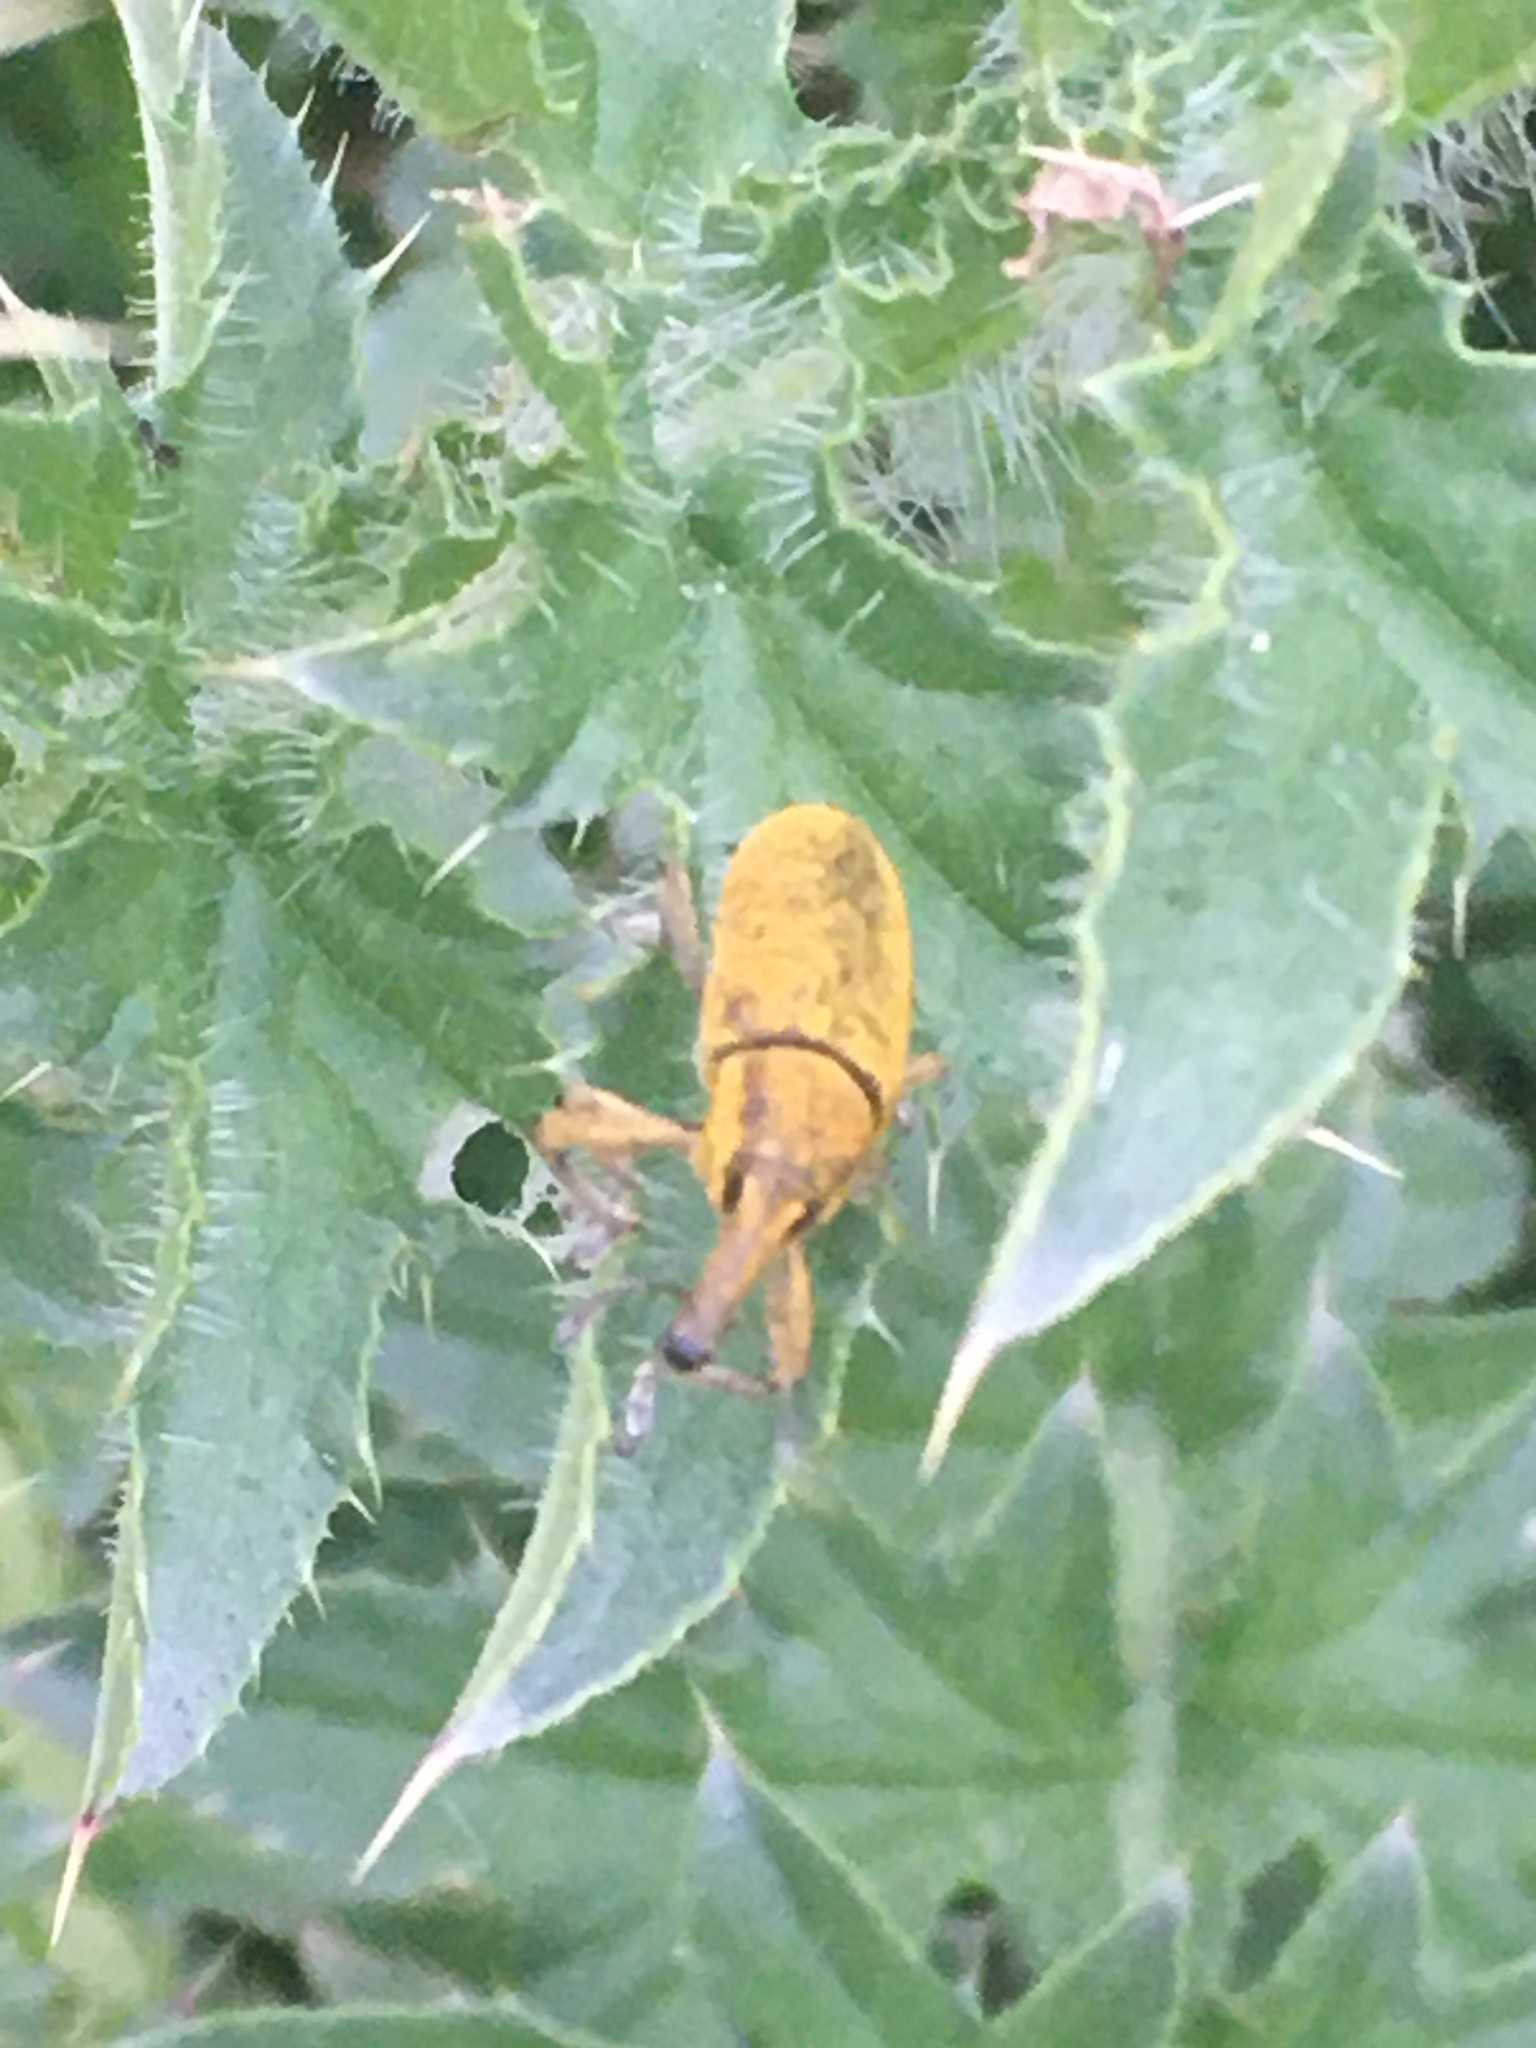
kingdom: Animalia
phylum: Arthropoda
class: Insecta
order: Coleoptera
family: Curculionidae
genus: Lixus
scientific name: Lixus pulverulentus
